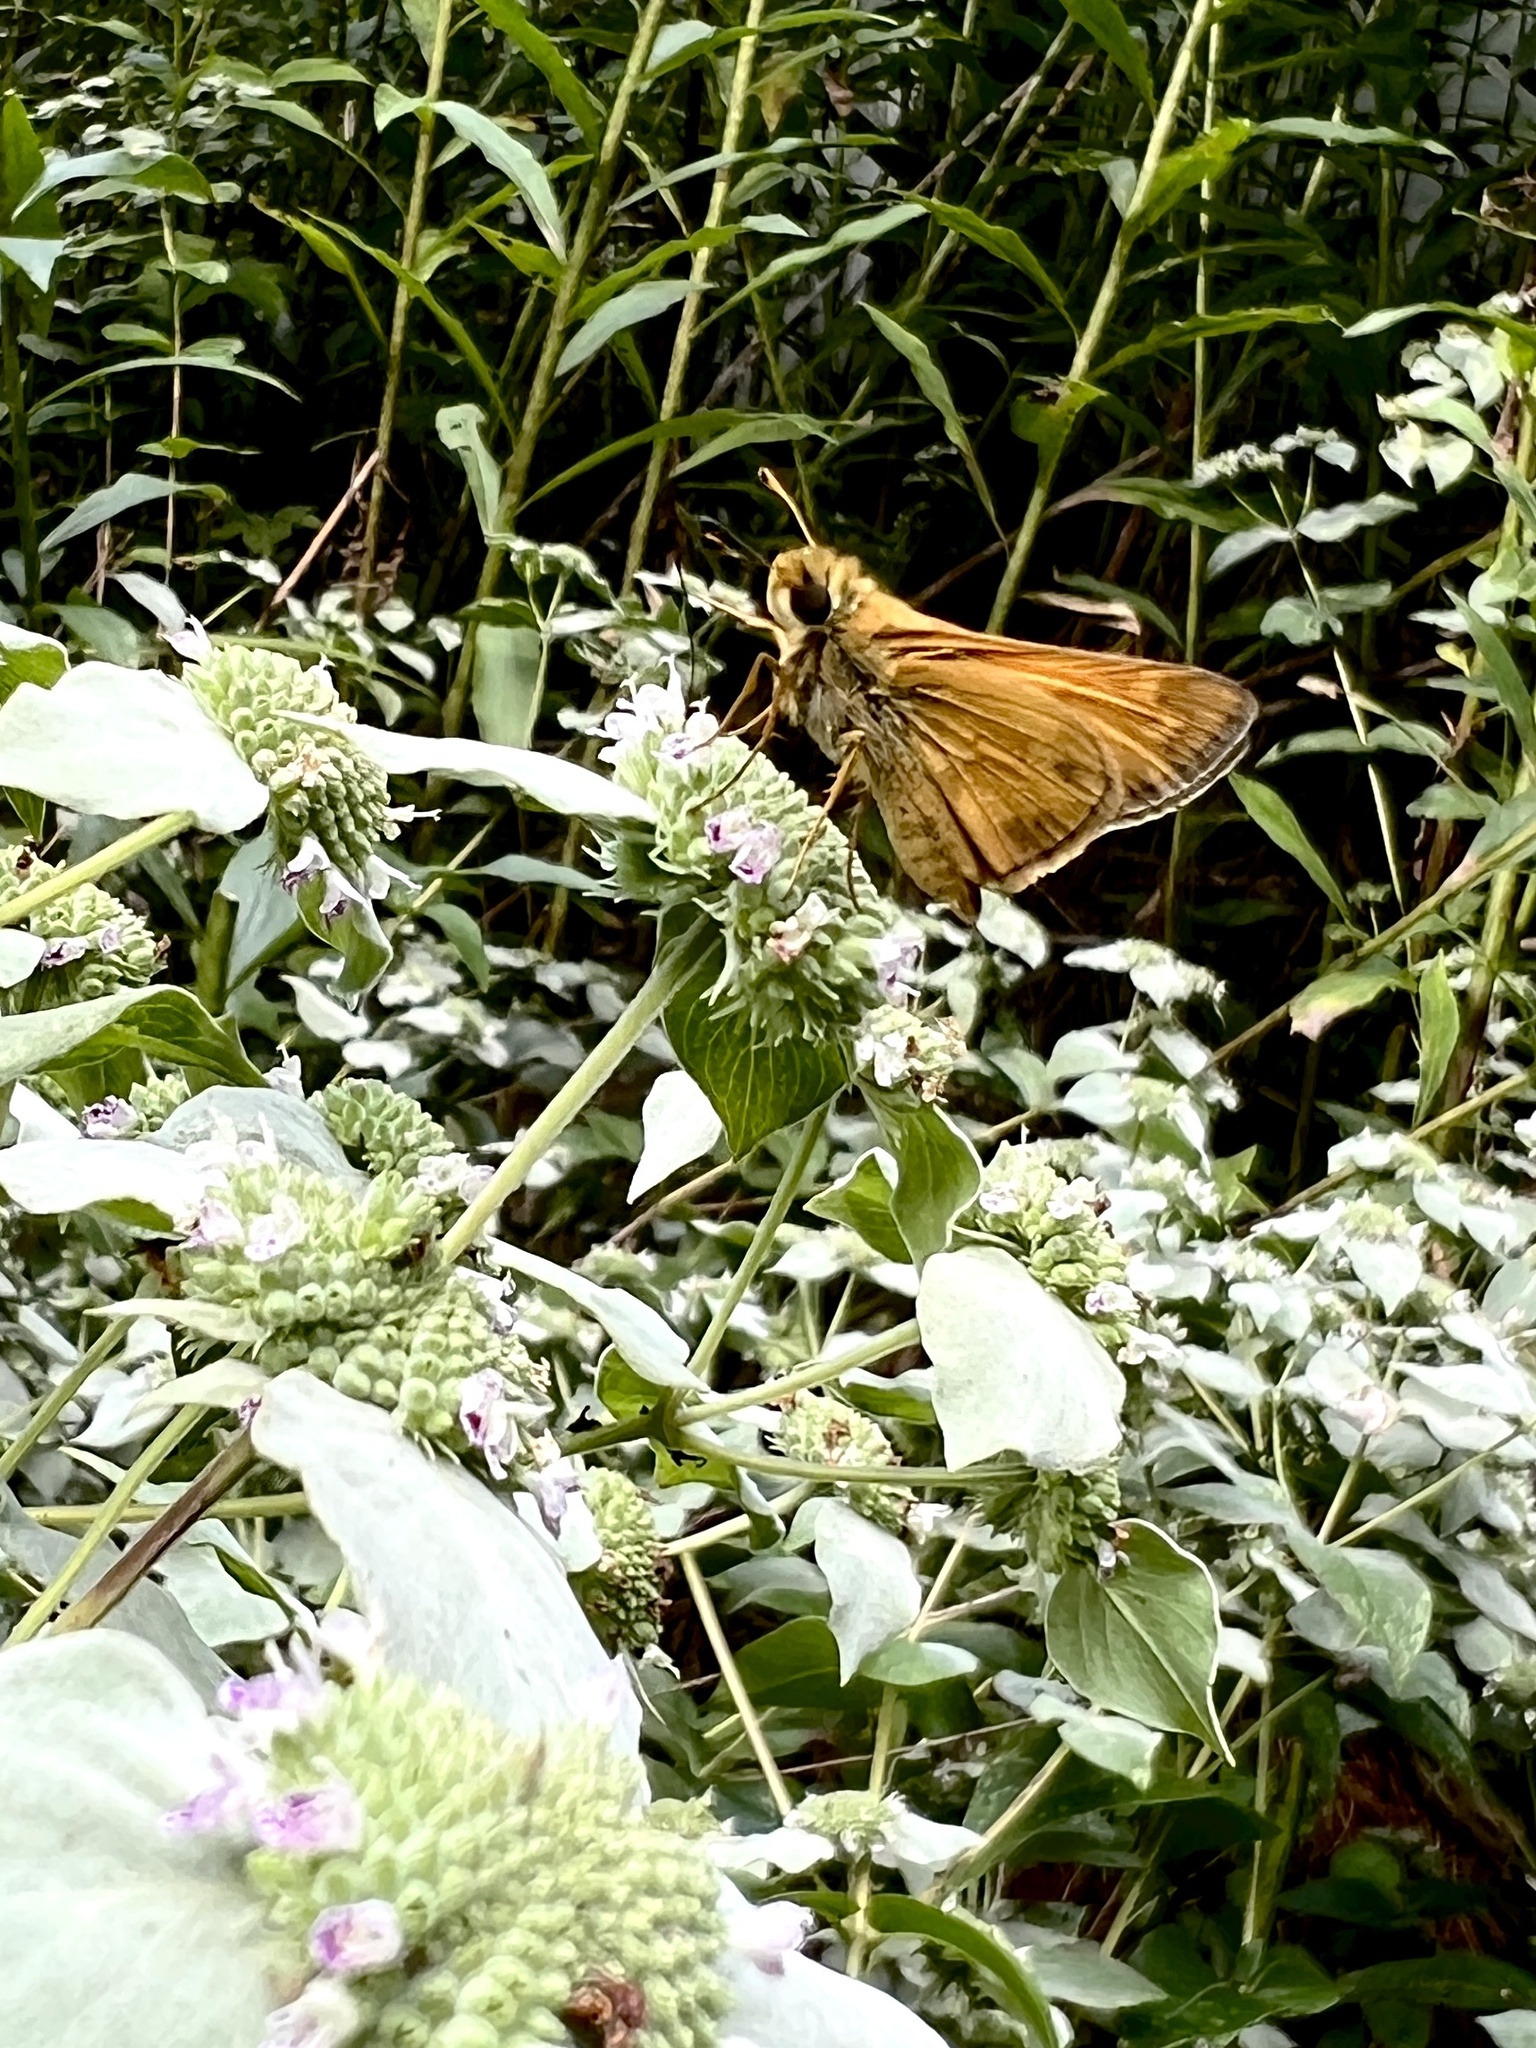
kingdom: Animalia
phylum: Arthropoda
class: Insecta
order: Lepidoptera
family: Hesperiidae
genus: Atalopedes
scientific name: Atalopedes
